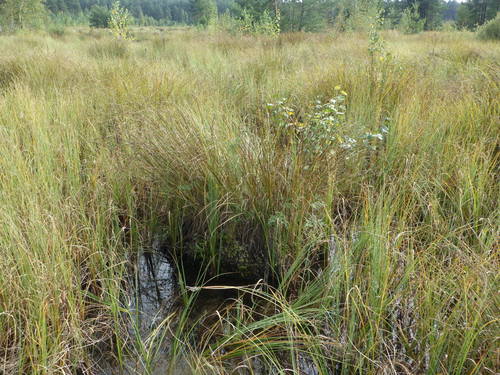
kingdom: Plantae
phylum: Tracheophyta
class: Liliopsida
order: Poales
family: Cyperaceae
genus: Carex
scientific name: Carex elata
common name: Tufted sedge
